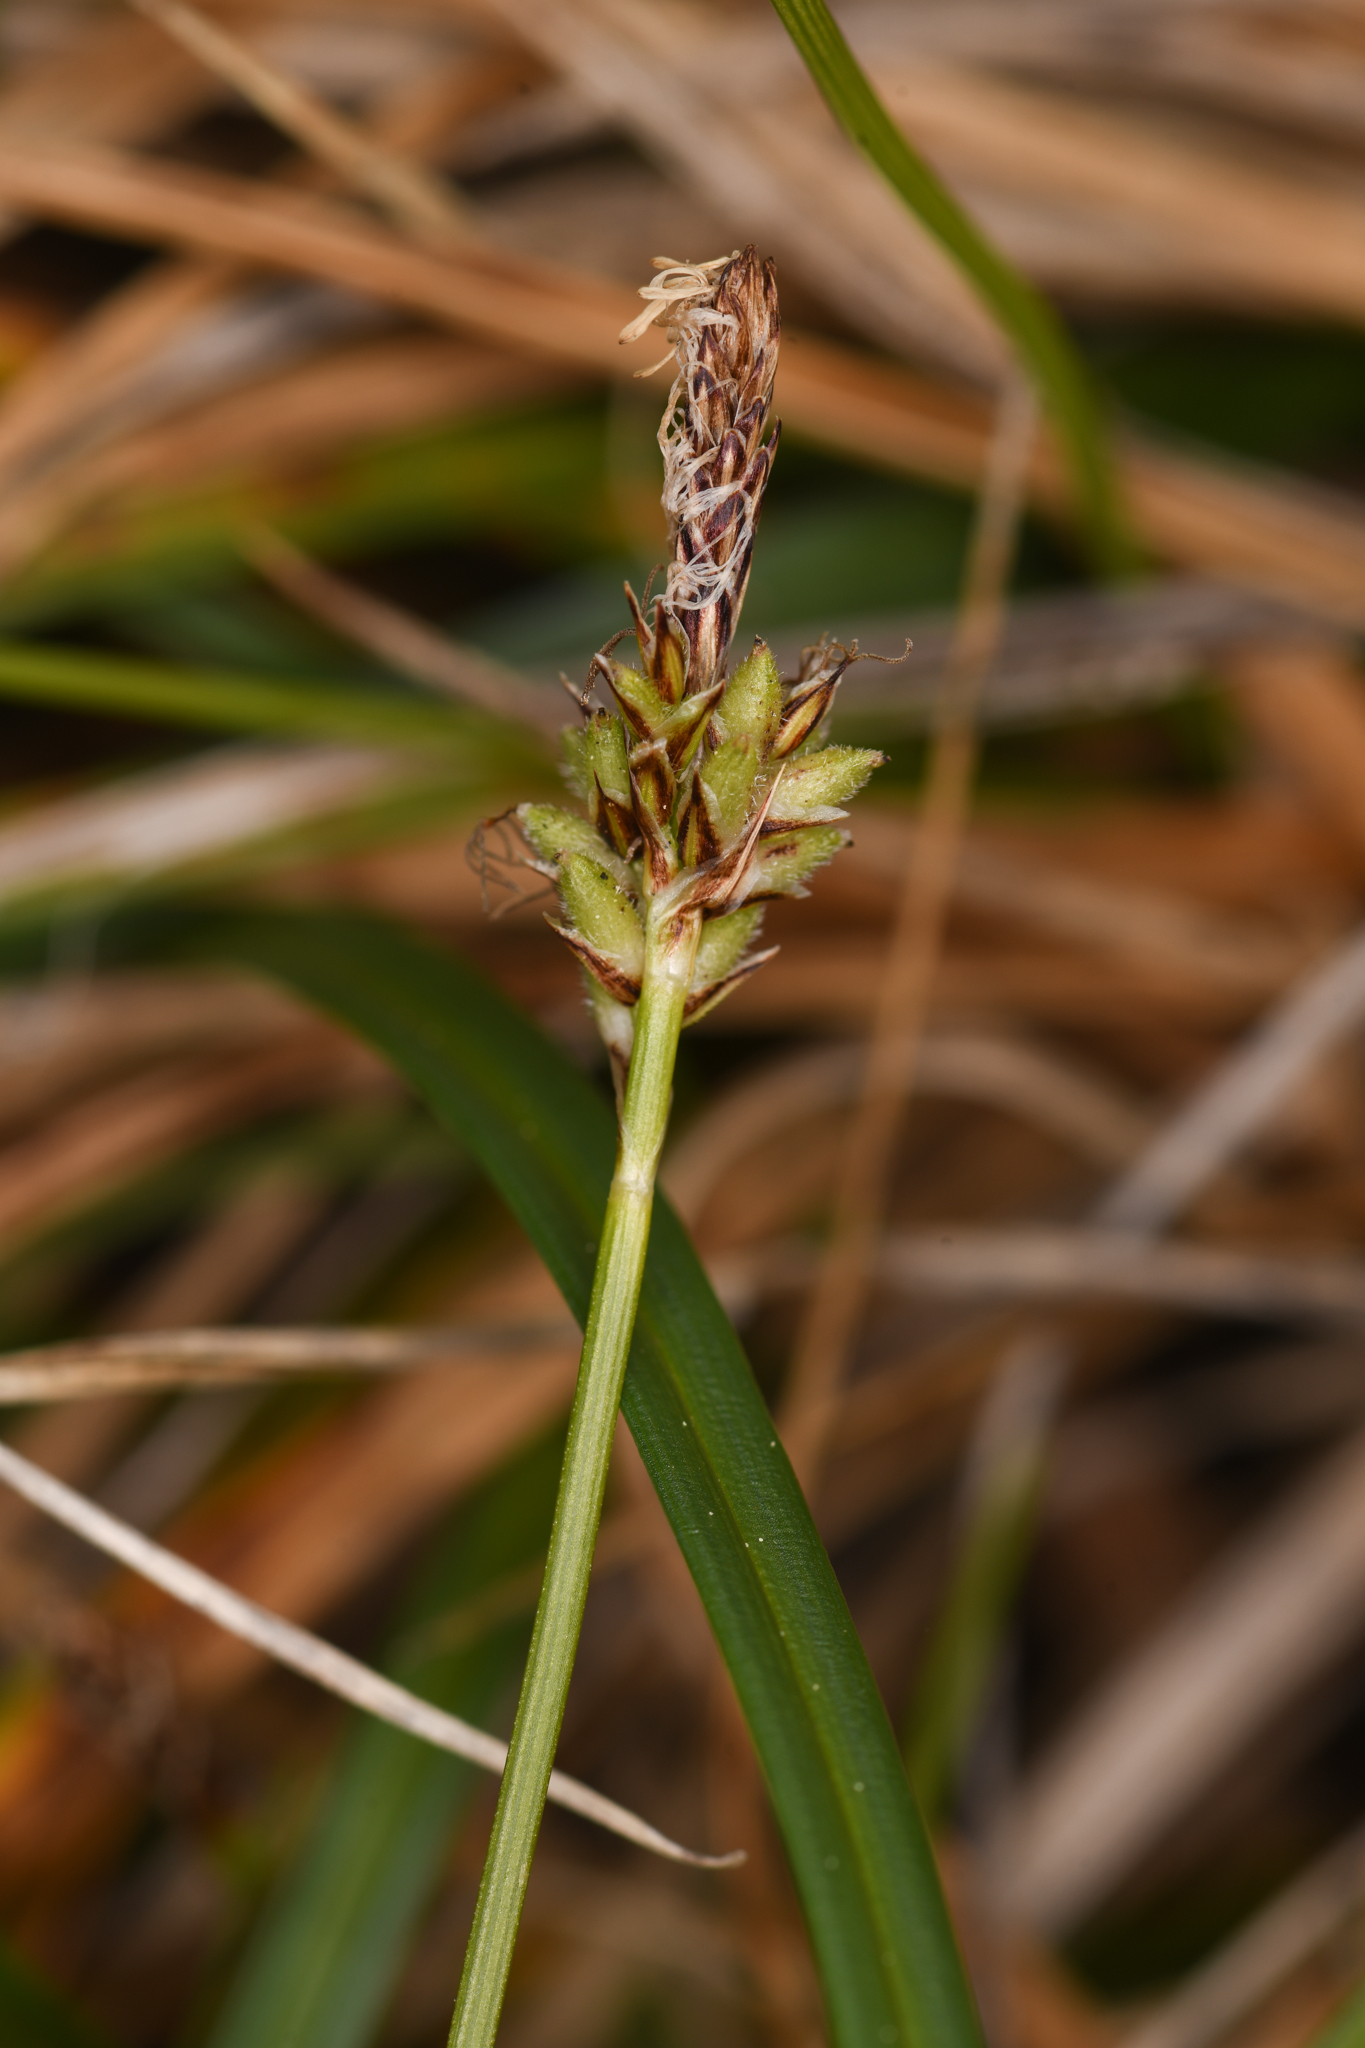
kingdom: Plantae
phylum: Tracheophyta
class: Liliopsida
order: Poales
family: Cyperaceae
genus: Carex
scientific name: Carex concinnoides
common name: Northwest sedge
